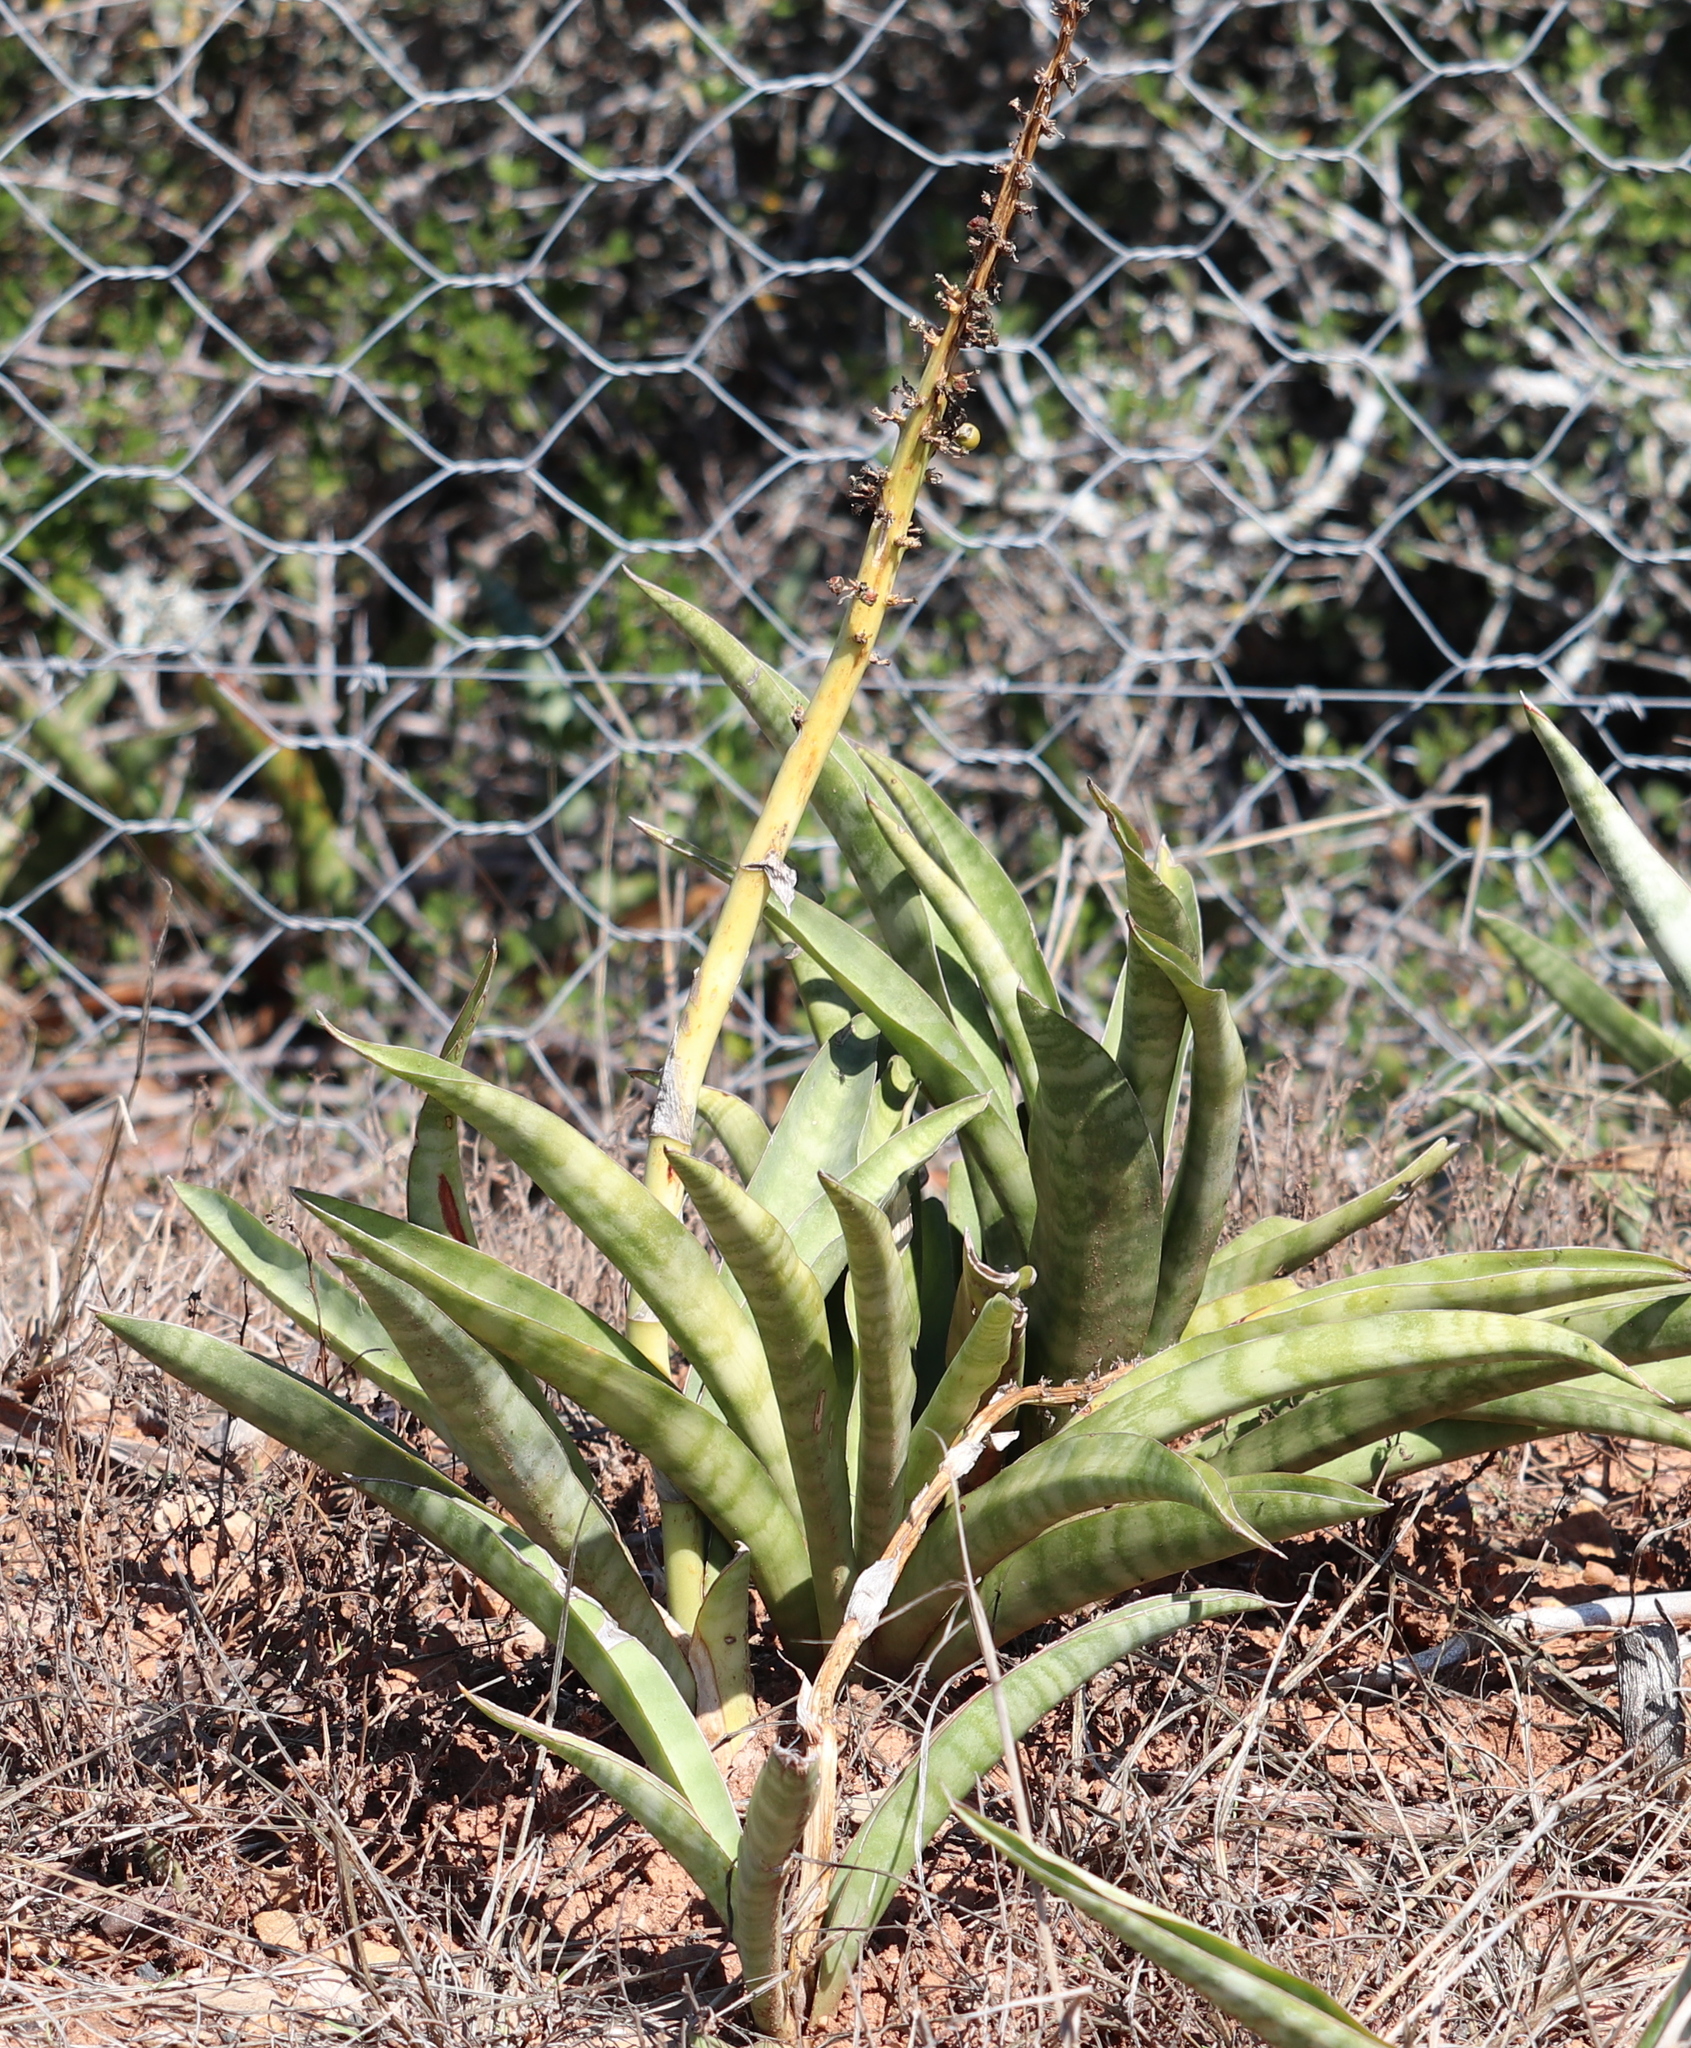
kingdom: Plantae
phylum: Tracheophyta
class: Liliopsida
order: Asparagales
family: Asparagaceae
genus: Dracaena
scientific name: Dracaena hyacinthoides
